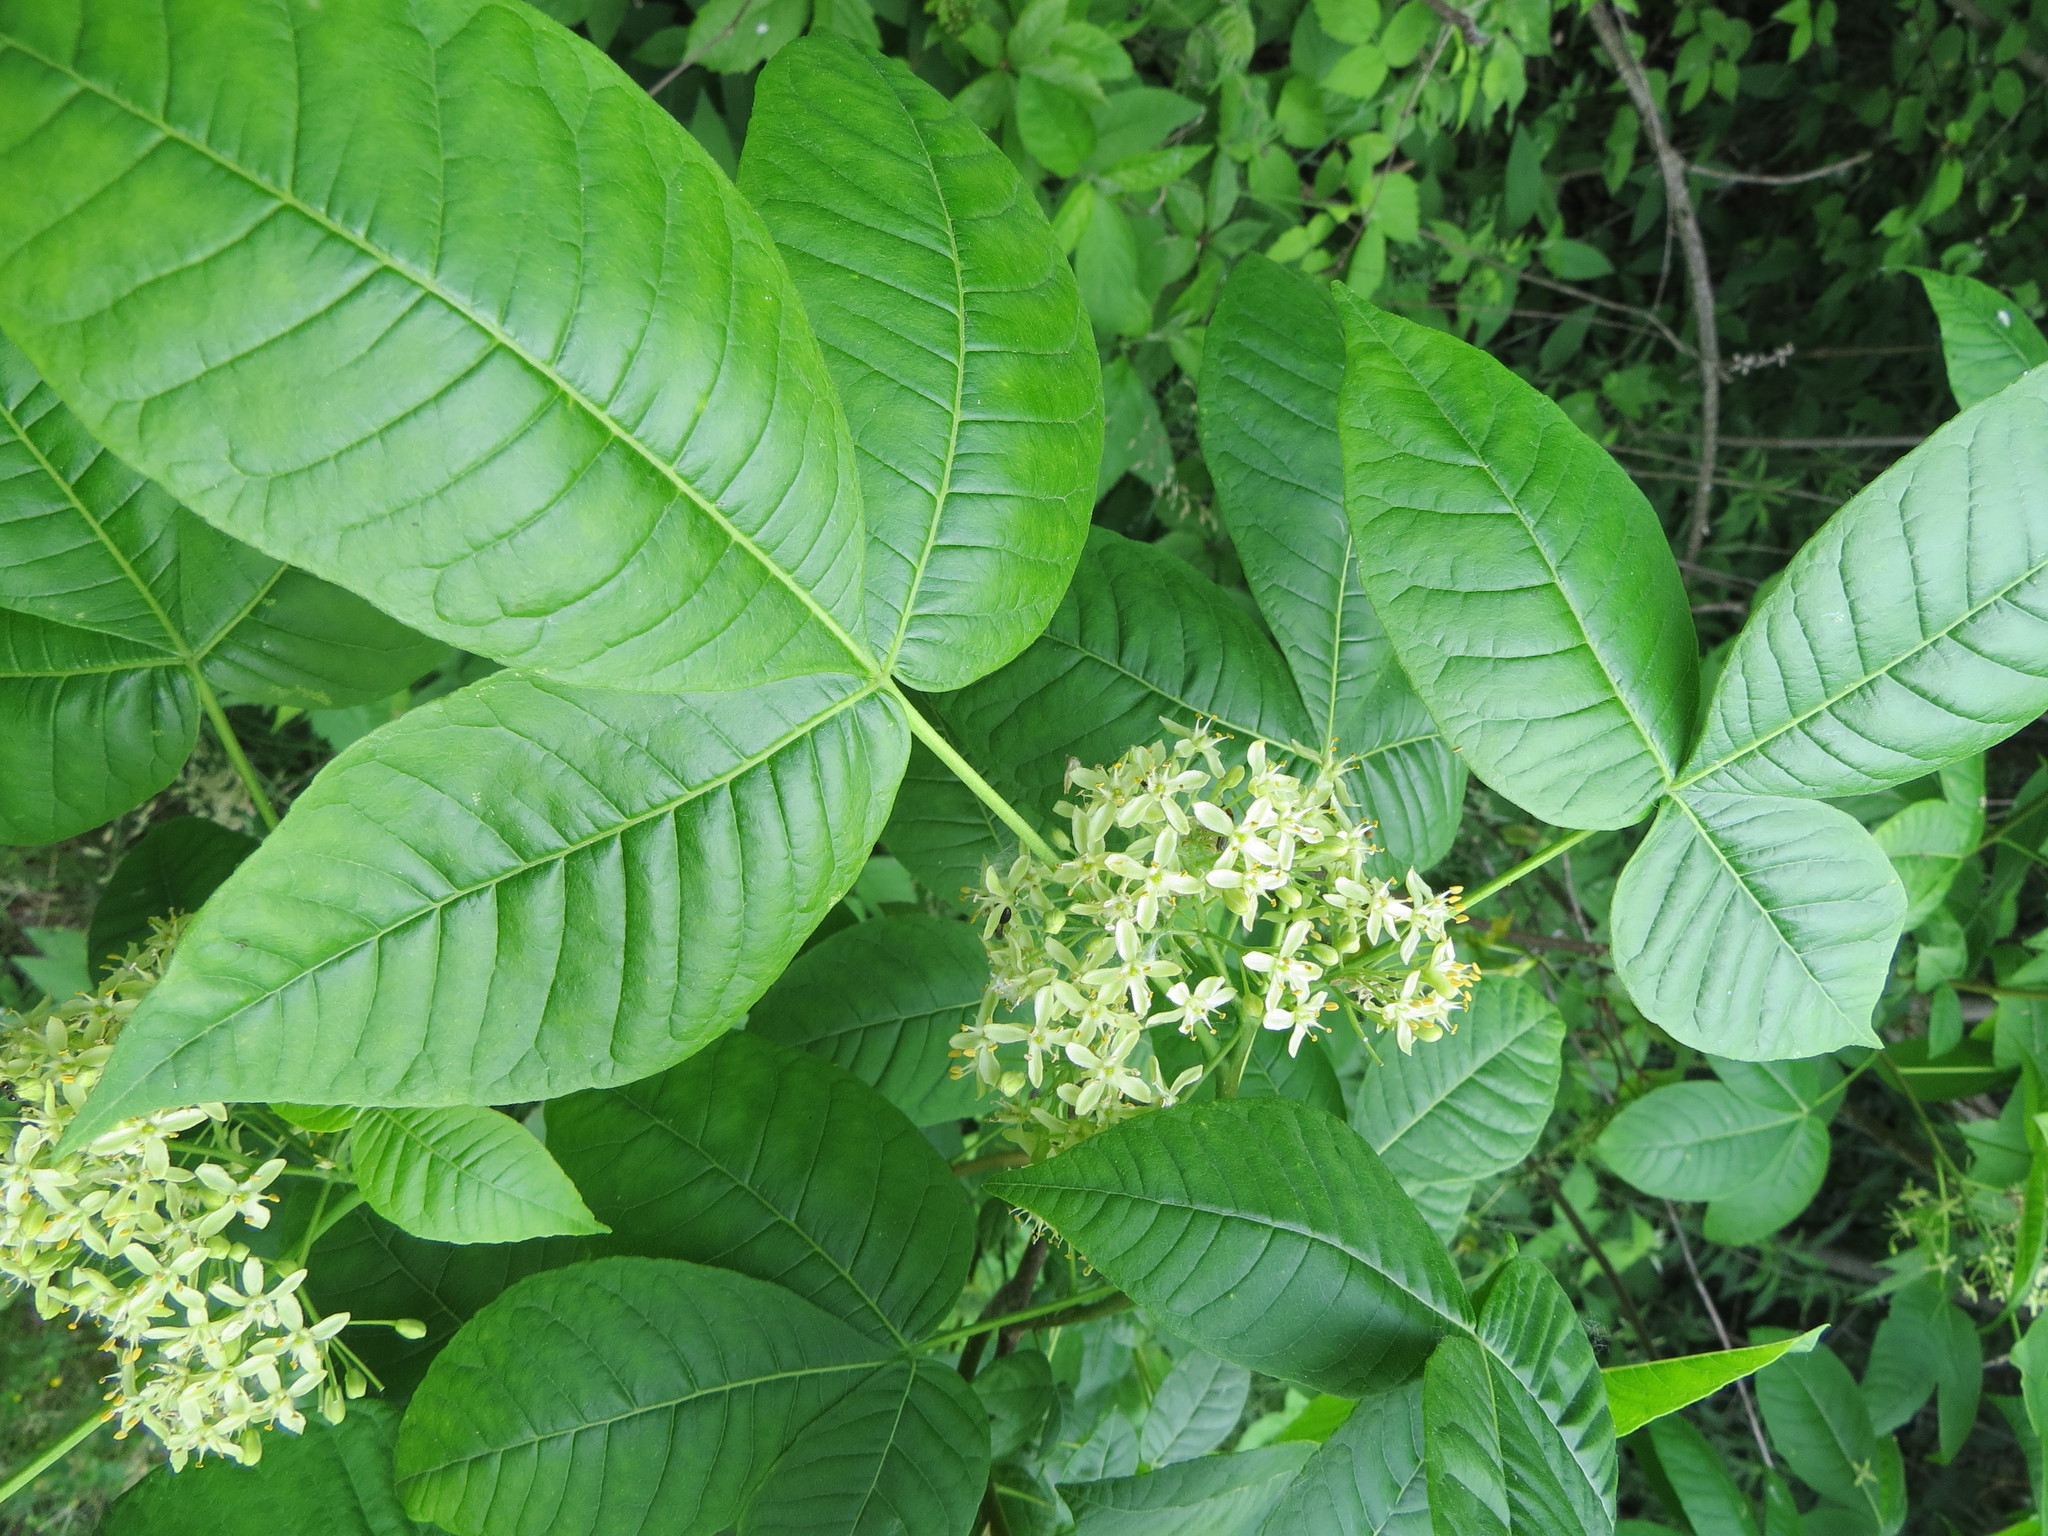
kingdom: Plantae
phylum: Tracheophyta
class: Magnoliopsida
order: Sapindales
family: Rutaceae
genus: Ptelea
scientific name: Ptelea trifoliata
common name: Common hop-tree
